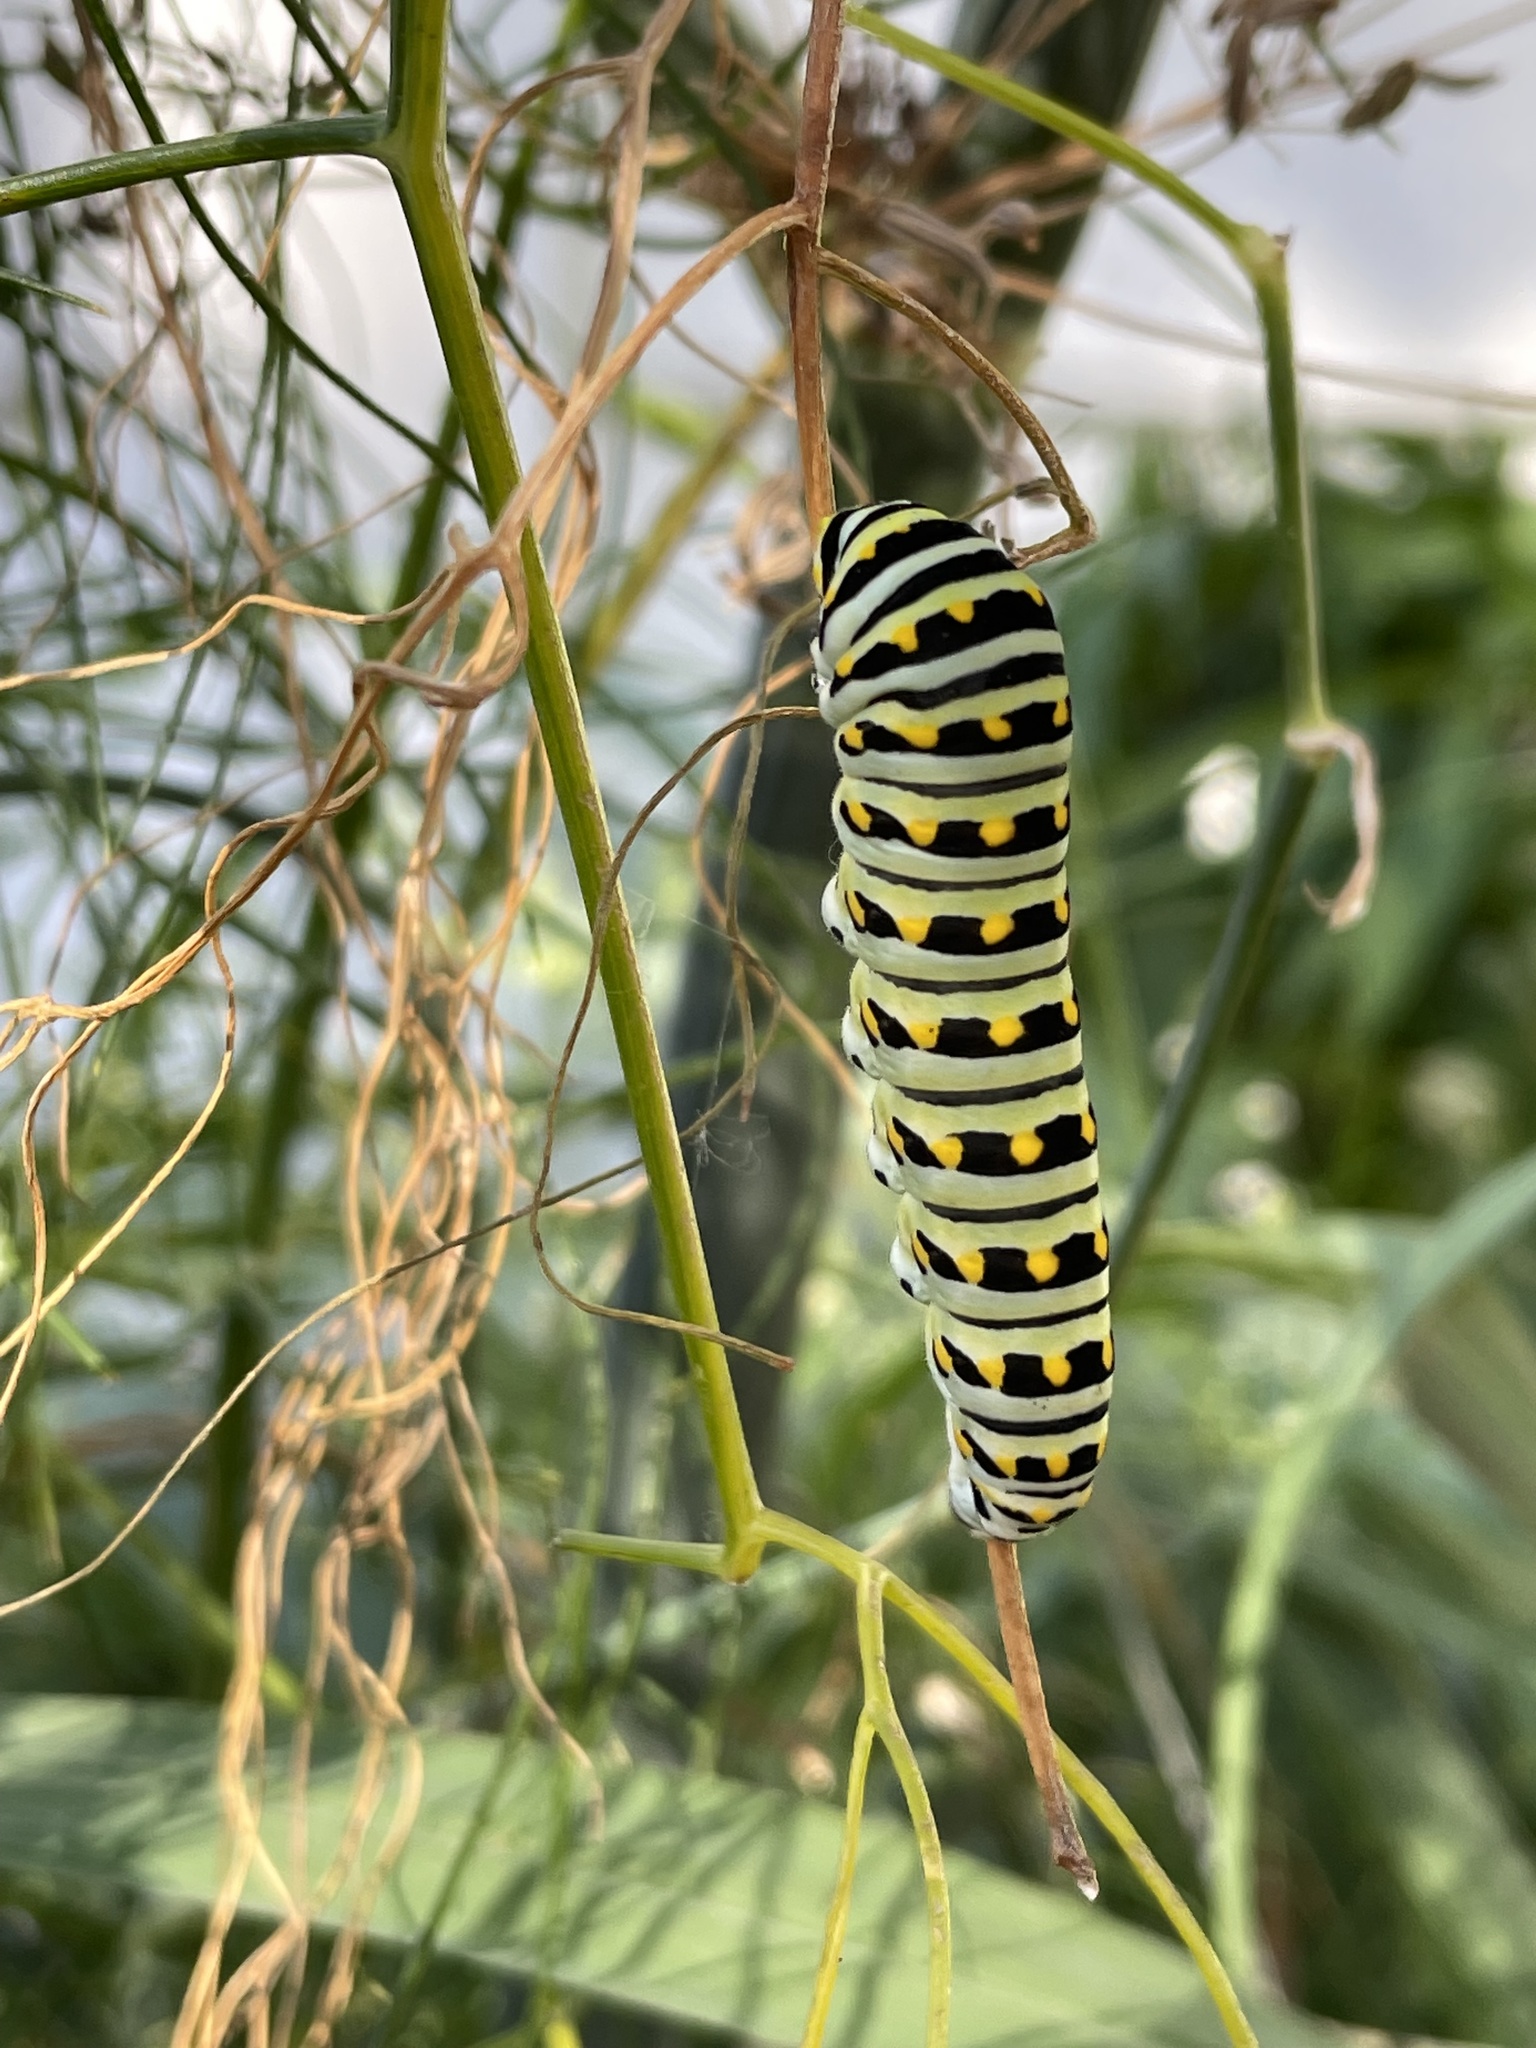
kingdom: Animalia
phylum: Arthropoda
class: Insecta
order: Lepidoptera
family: Papilionidae
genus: Papilio
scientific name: Papilio polyxenes
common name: Black swallowtail
